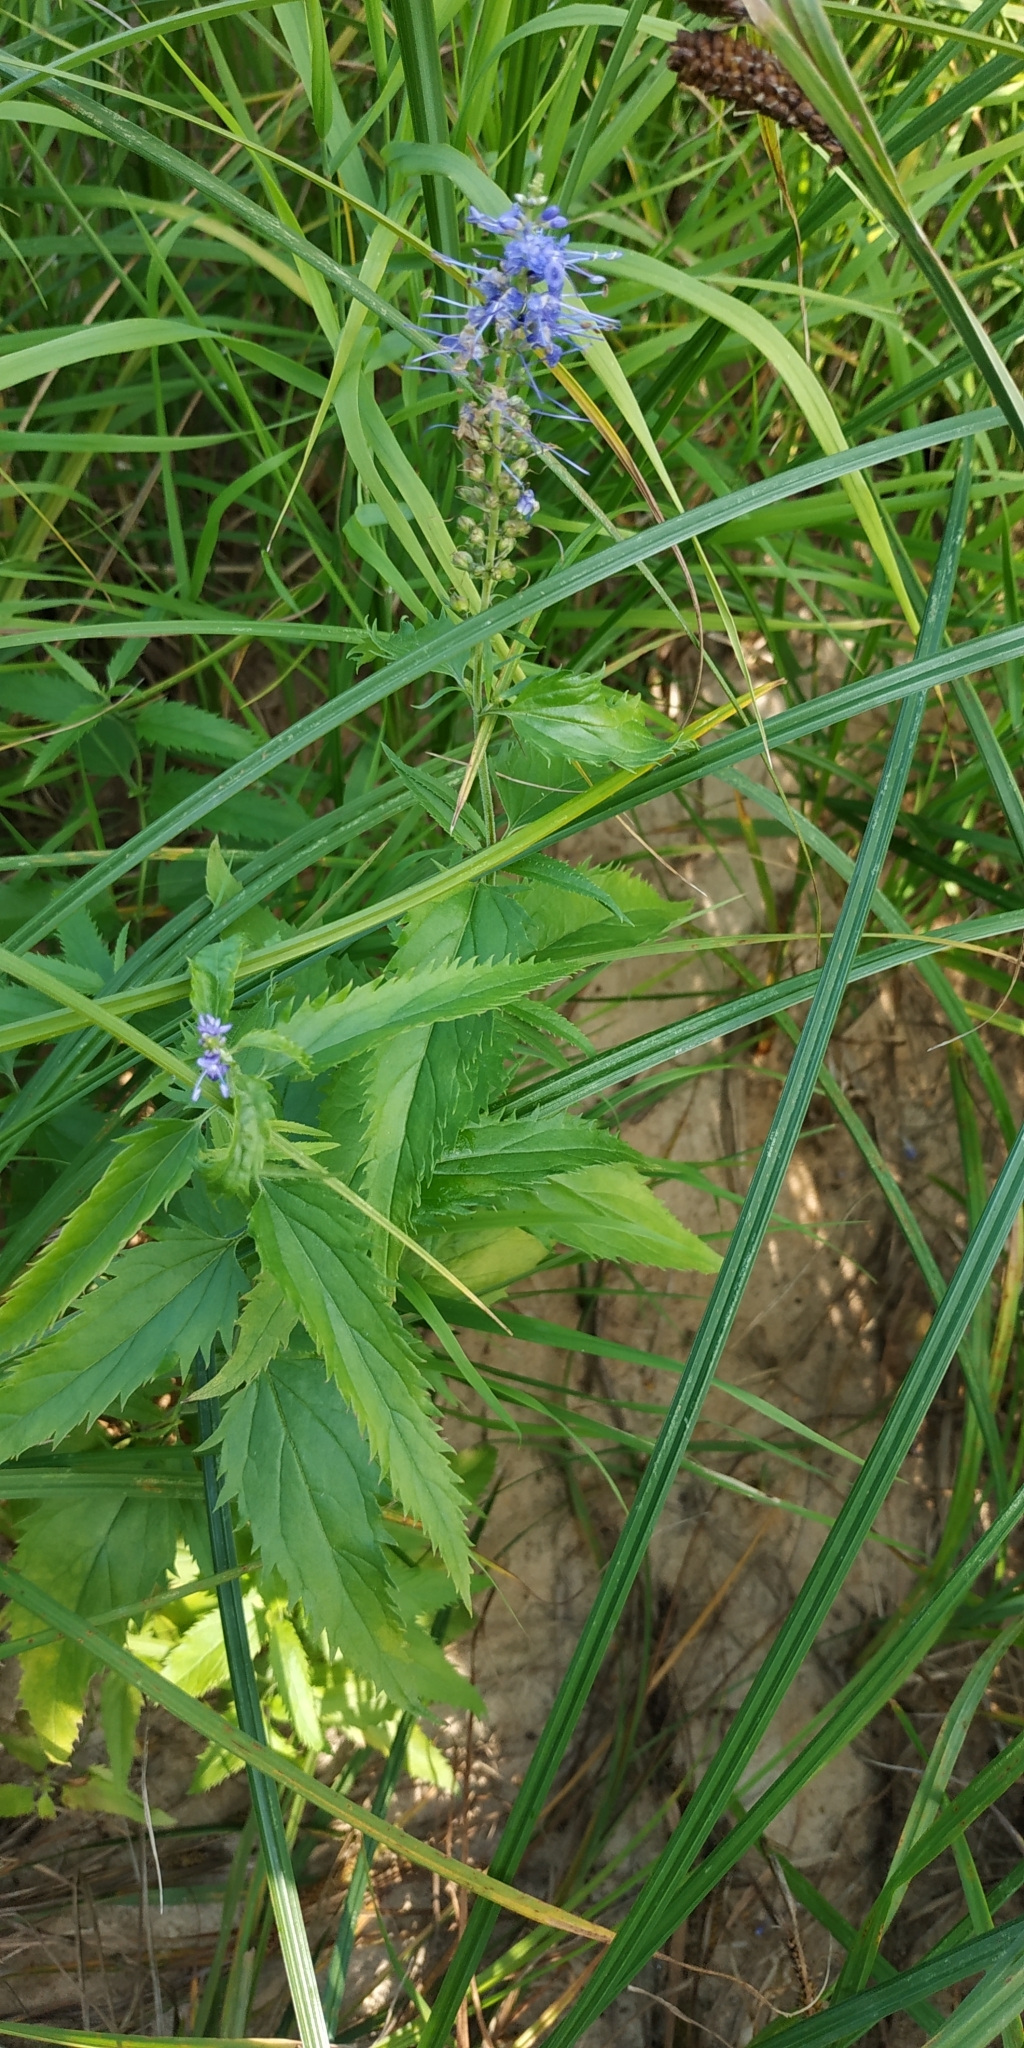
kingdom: Plantae
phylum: Tracheophyta
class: Magnoliopsida
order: Lamiales
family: Plantaginaceae
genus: Veronica
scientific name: Veronica longifolia
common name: Garden speedwell
